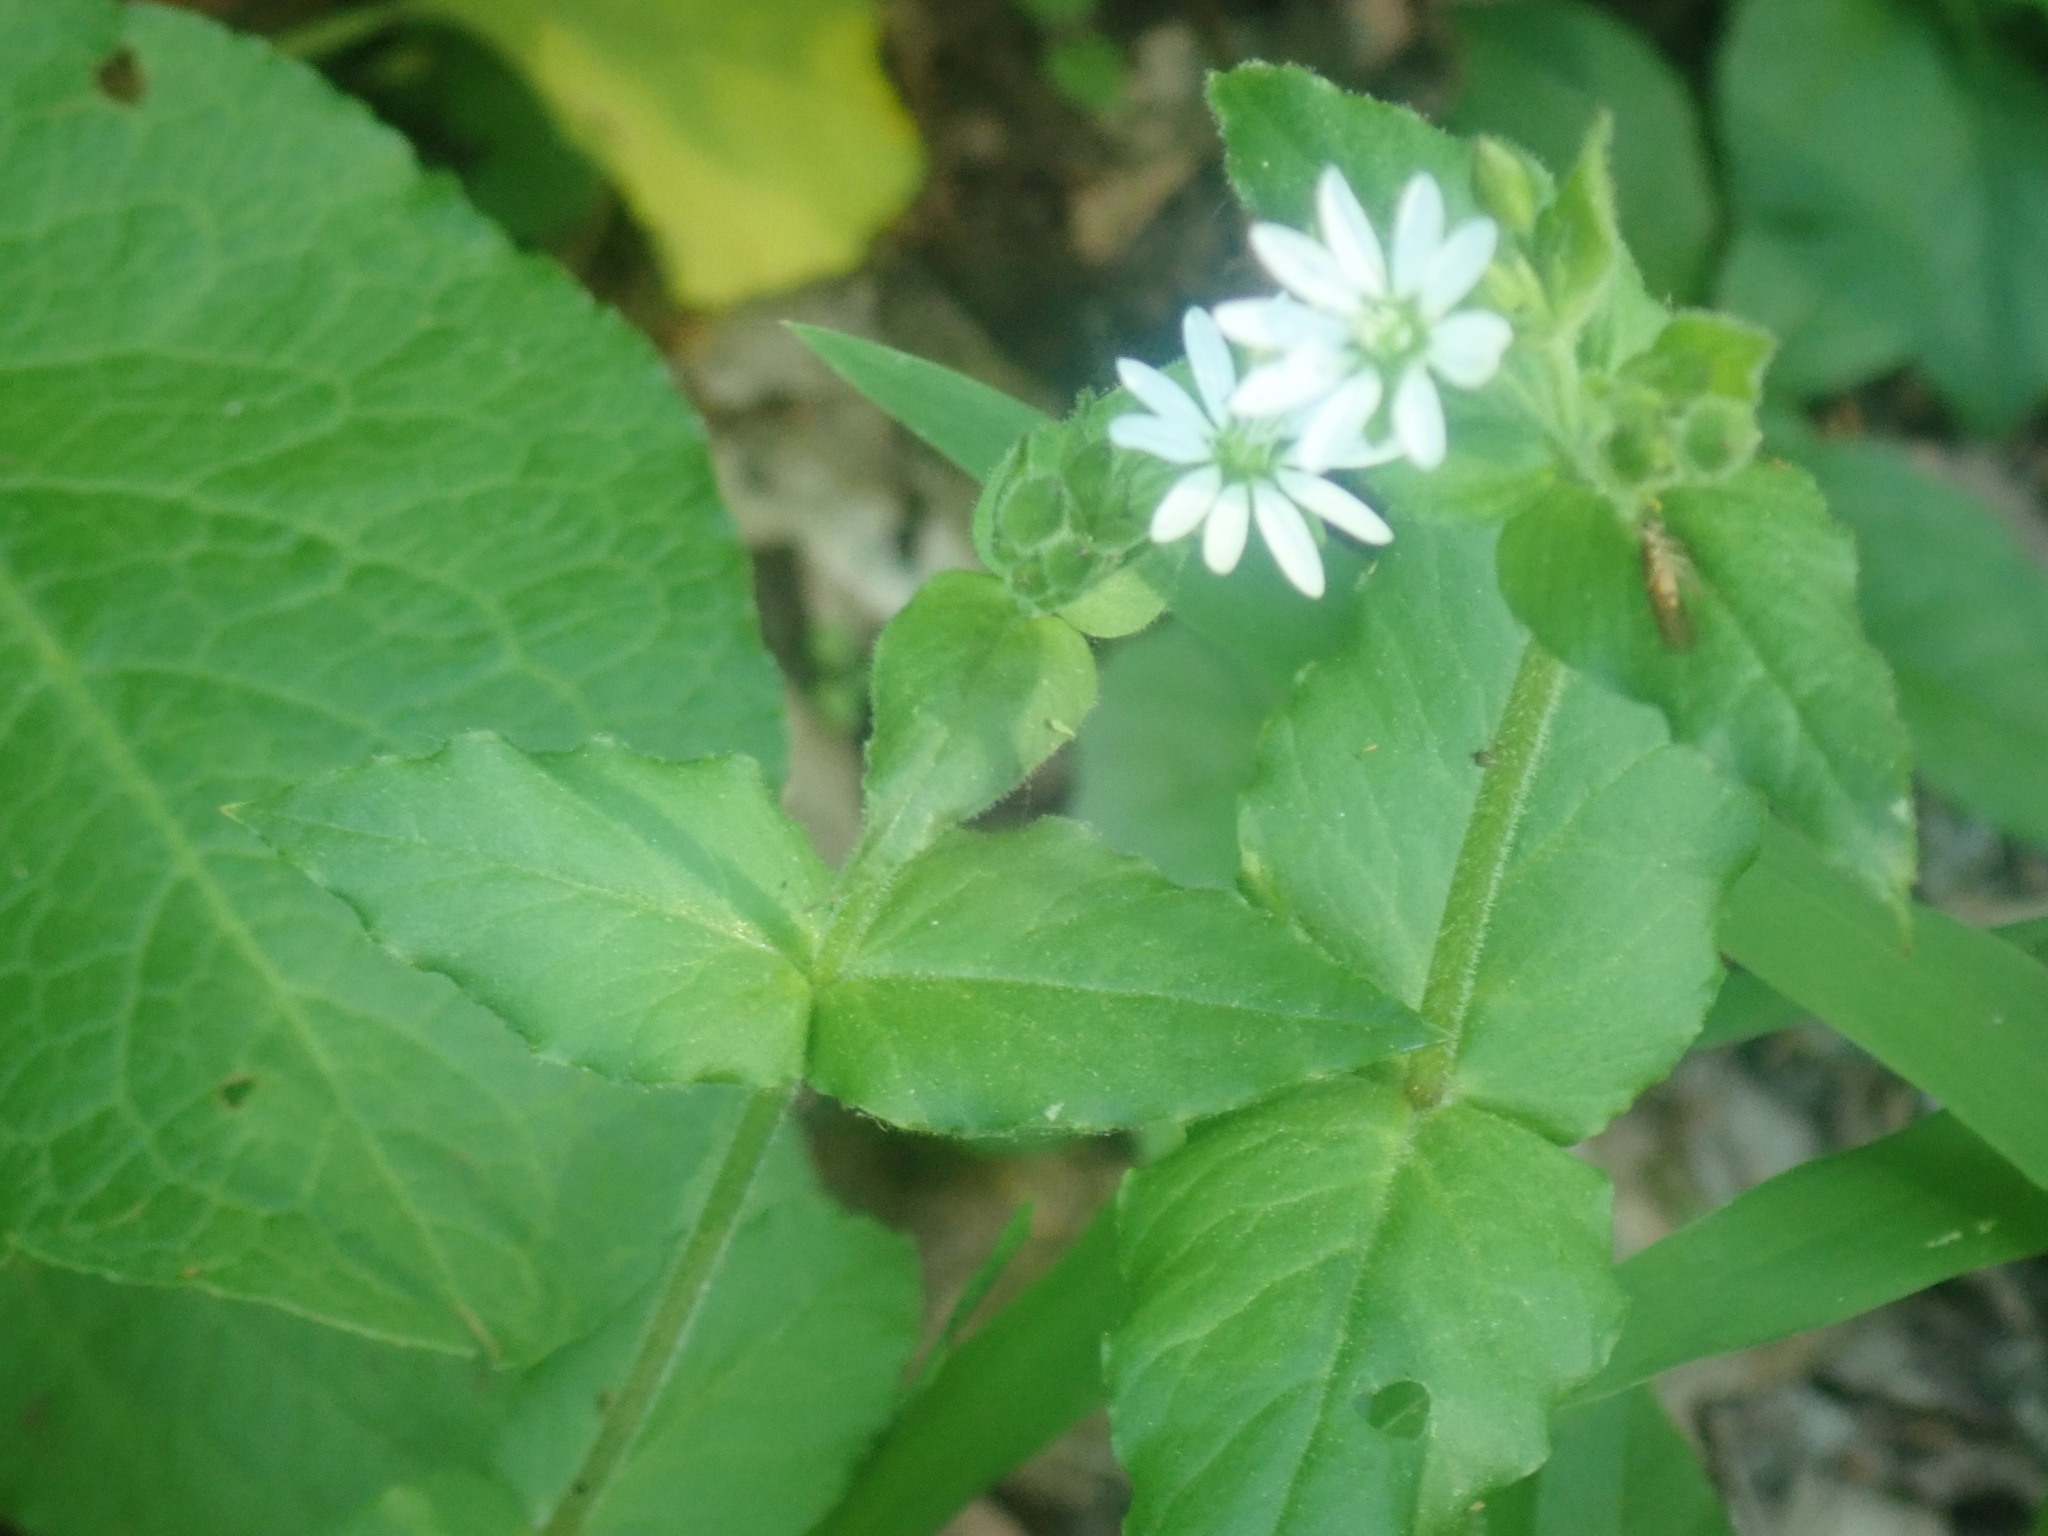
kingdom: Plantae
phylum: Tracheophyta
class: Magnoliopsida
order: Caryophyllales
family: Caryophyllaceae
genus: Stellaria
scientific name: Stellaria aquatica
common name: Water chickweed
